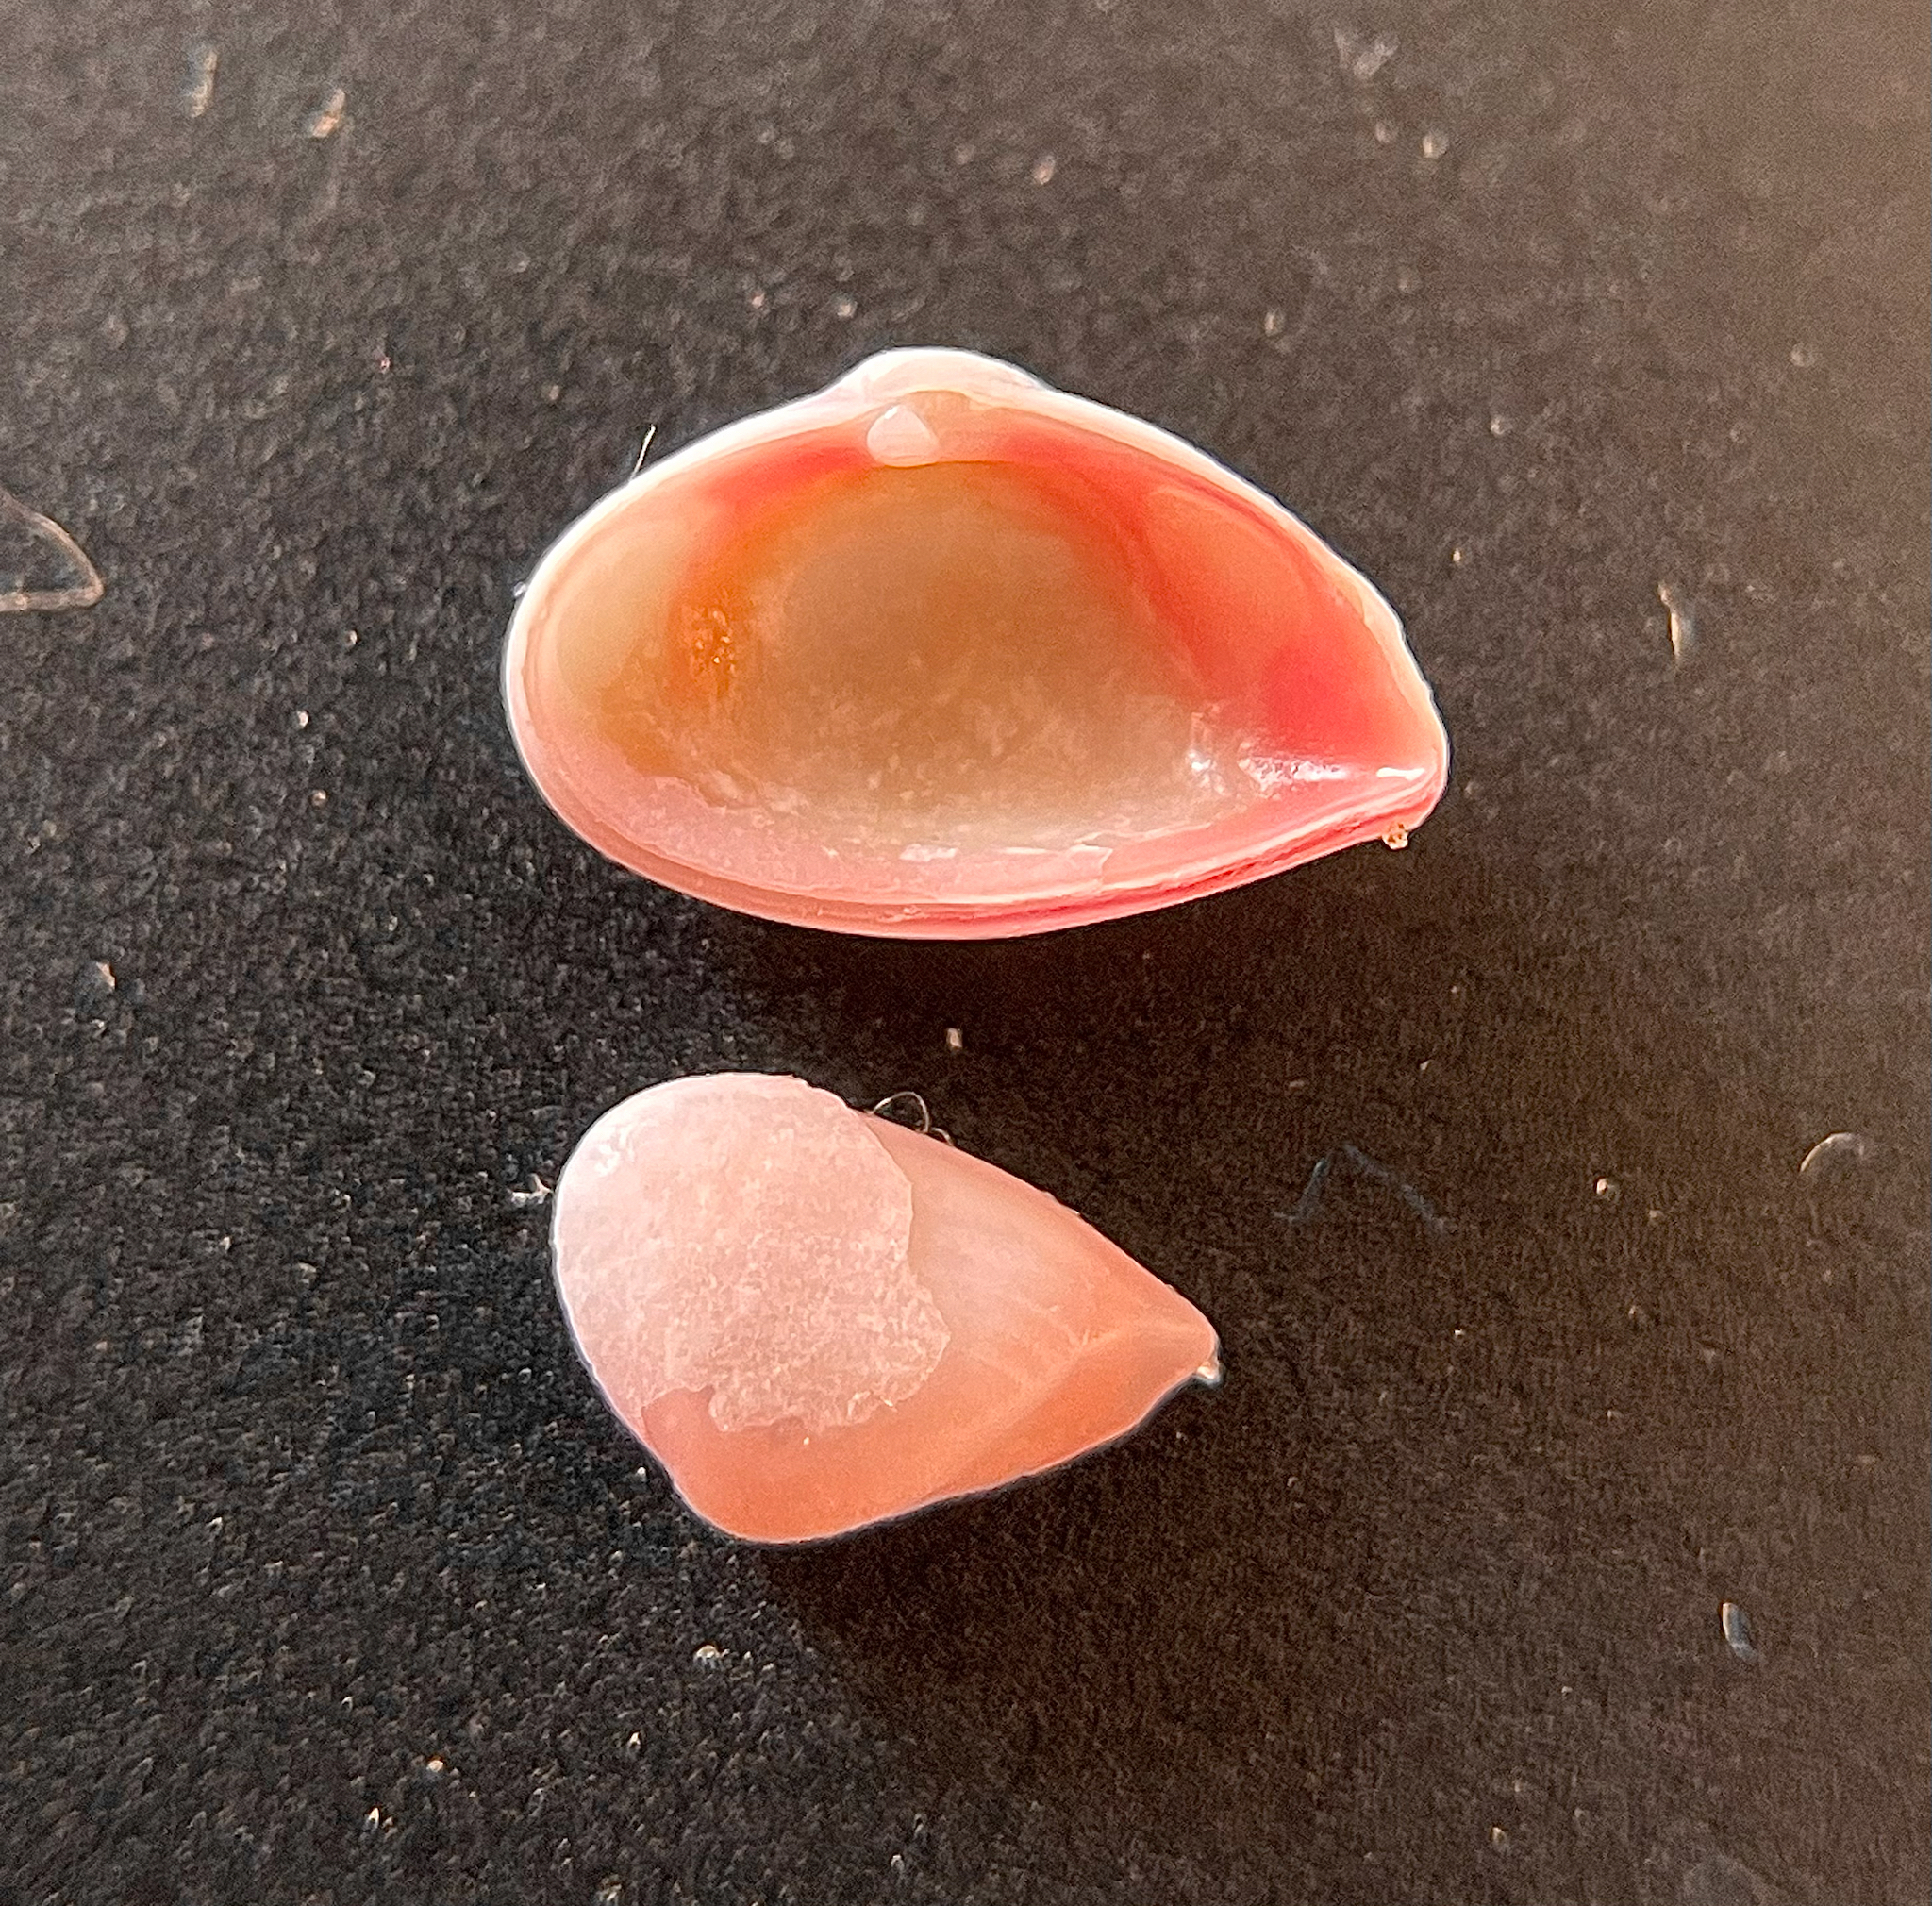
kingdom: Animalia
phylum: Mollusca
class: Bivalvia
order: Myida
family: Corbulidae
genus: Corbula
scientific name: Corbula dietziana
